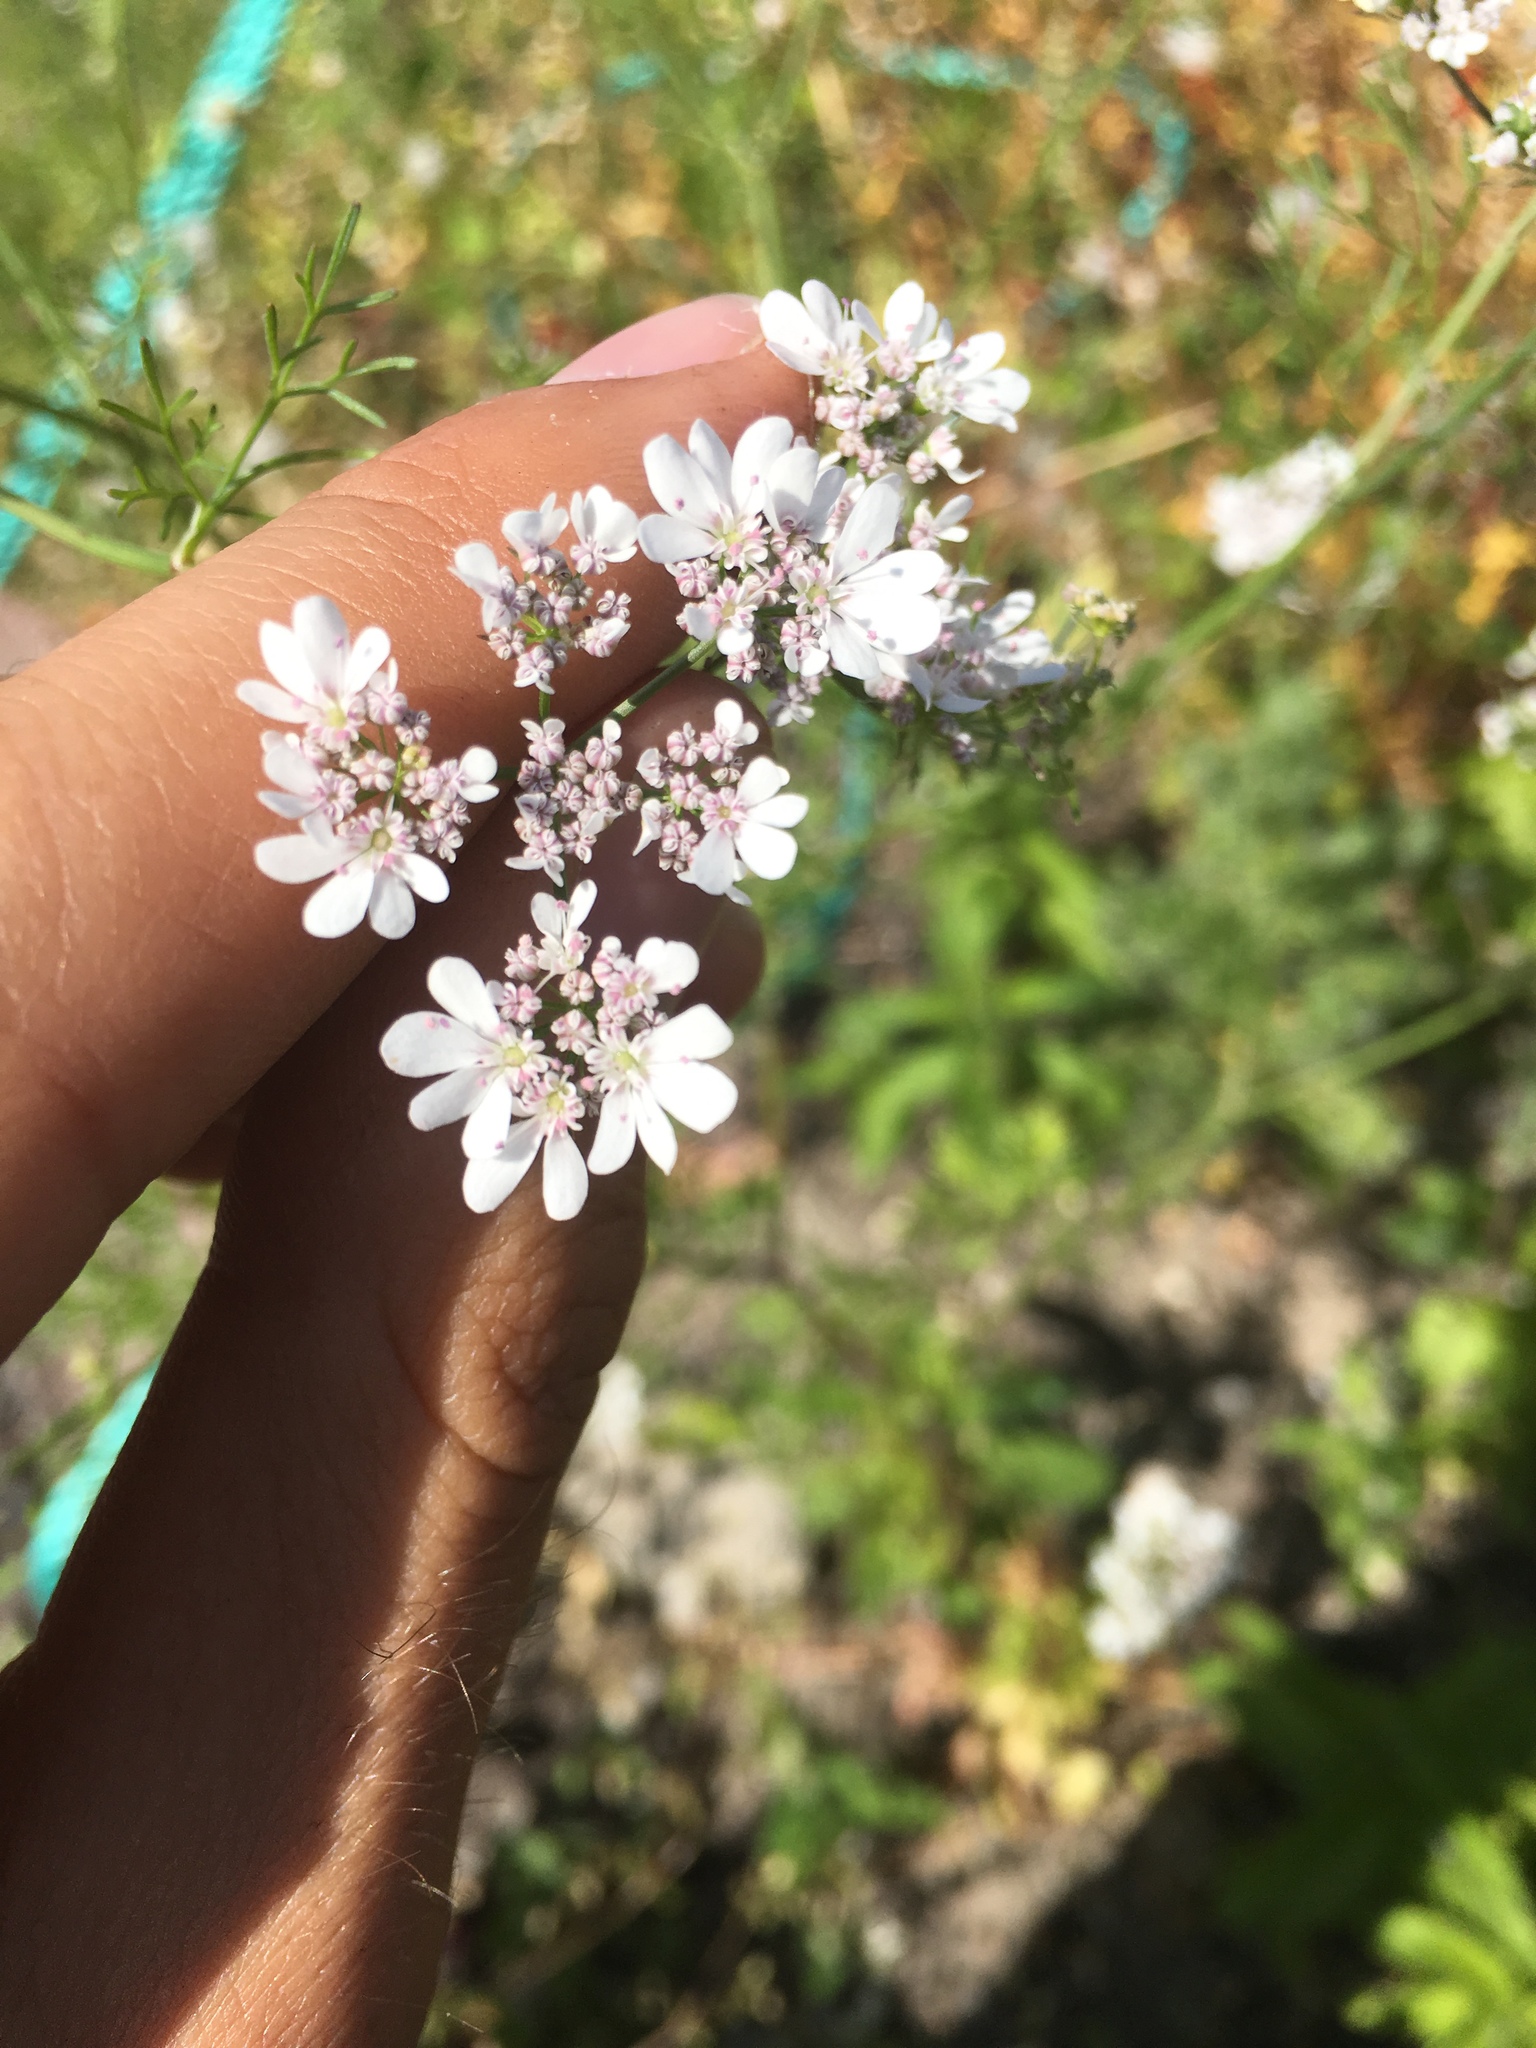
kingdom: Plantae
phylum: Tracheophyta
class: Magnoliopsida
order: Apiales
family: Apiaceae
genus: Coriandrum
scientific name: Coriandrum sativum
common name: Coriander
